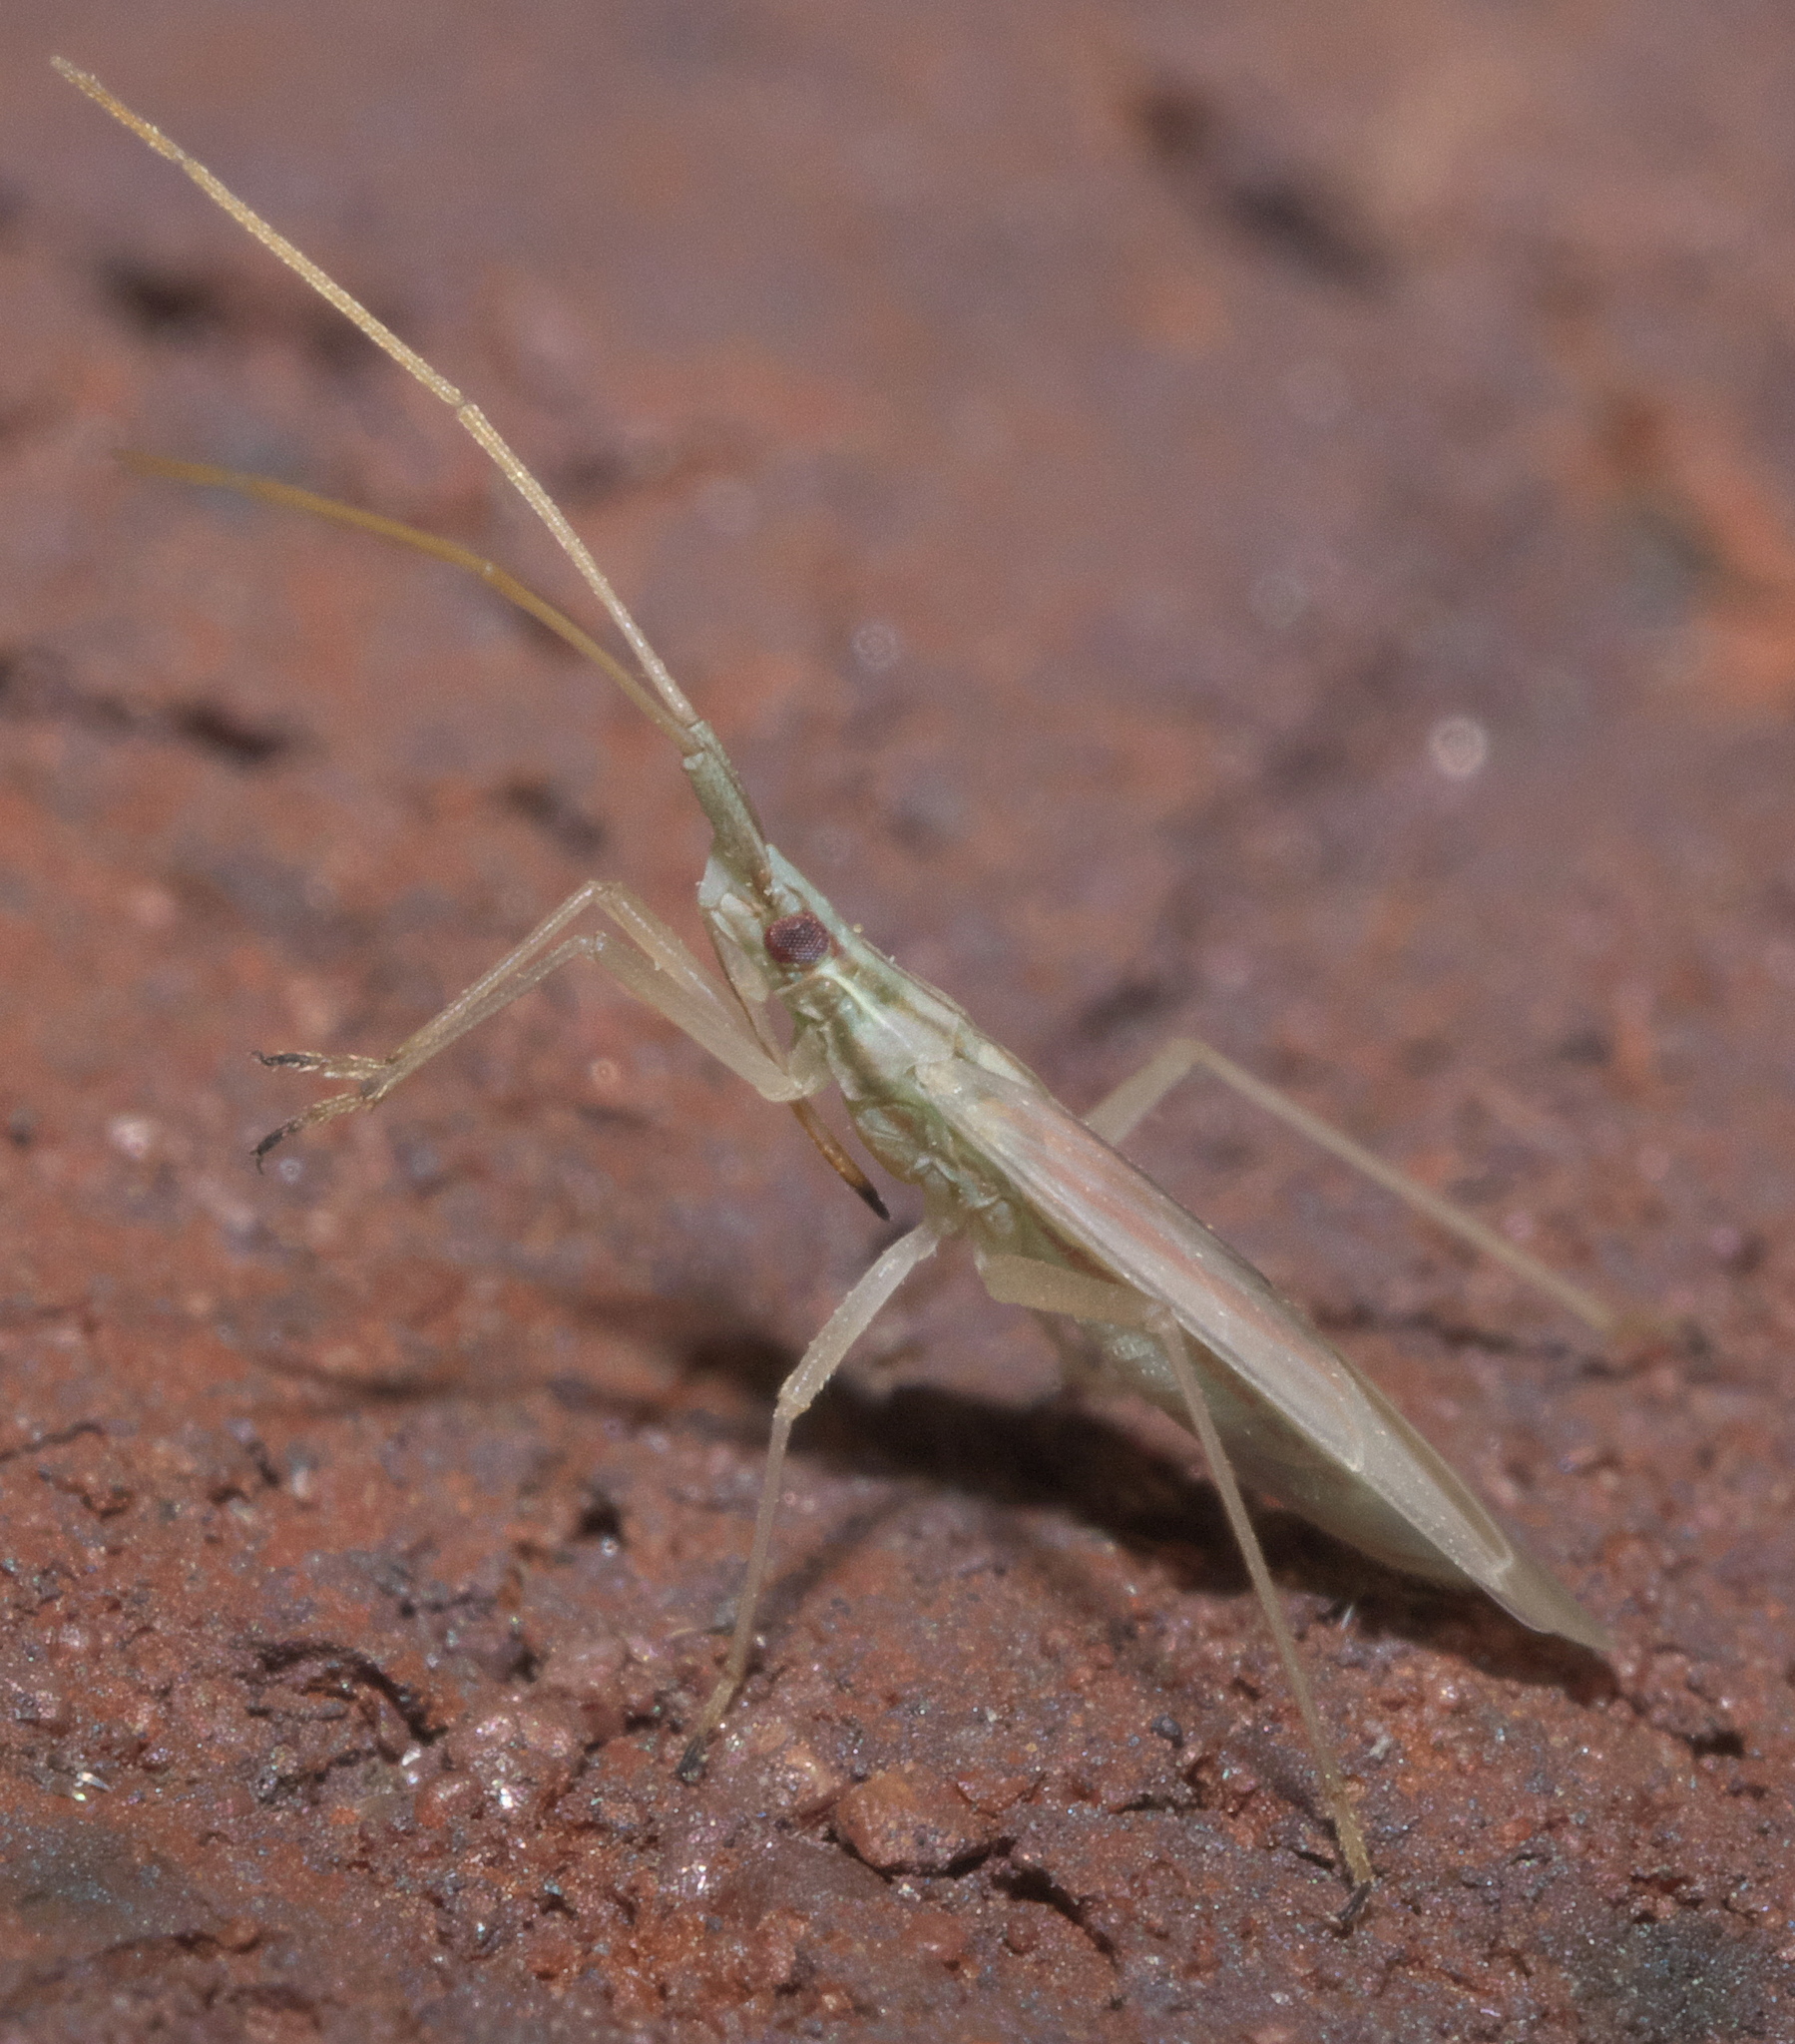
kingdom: Animalia
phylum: Arthropoda
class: Insecta
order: Hemiptera
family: Miridae
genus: Trigonotylus
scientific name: Trigonotylus pulcher
